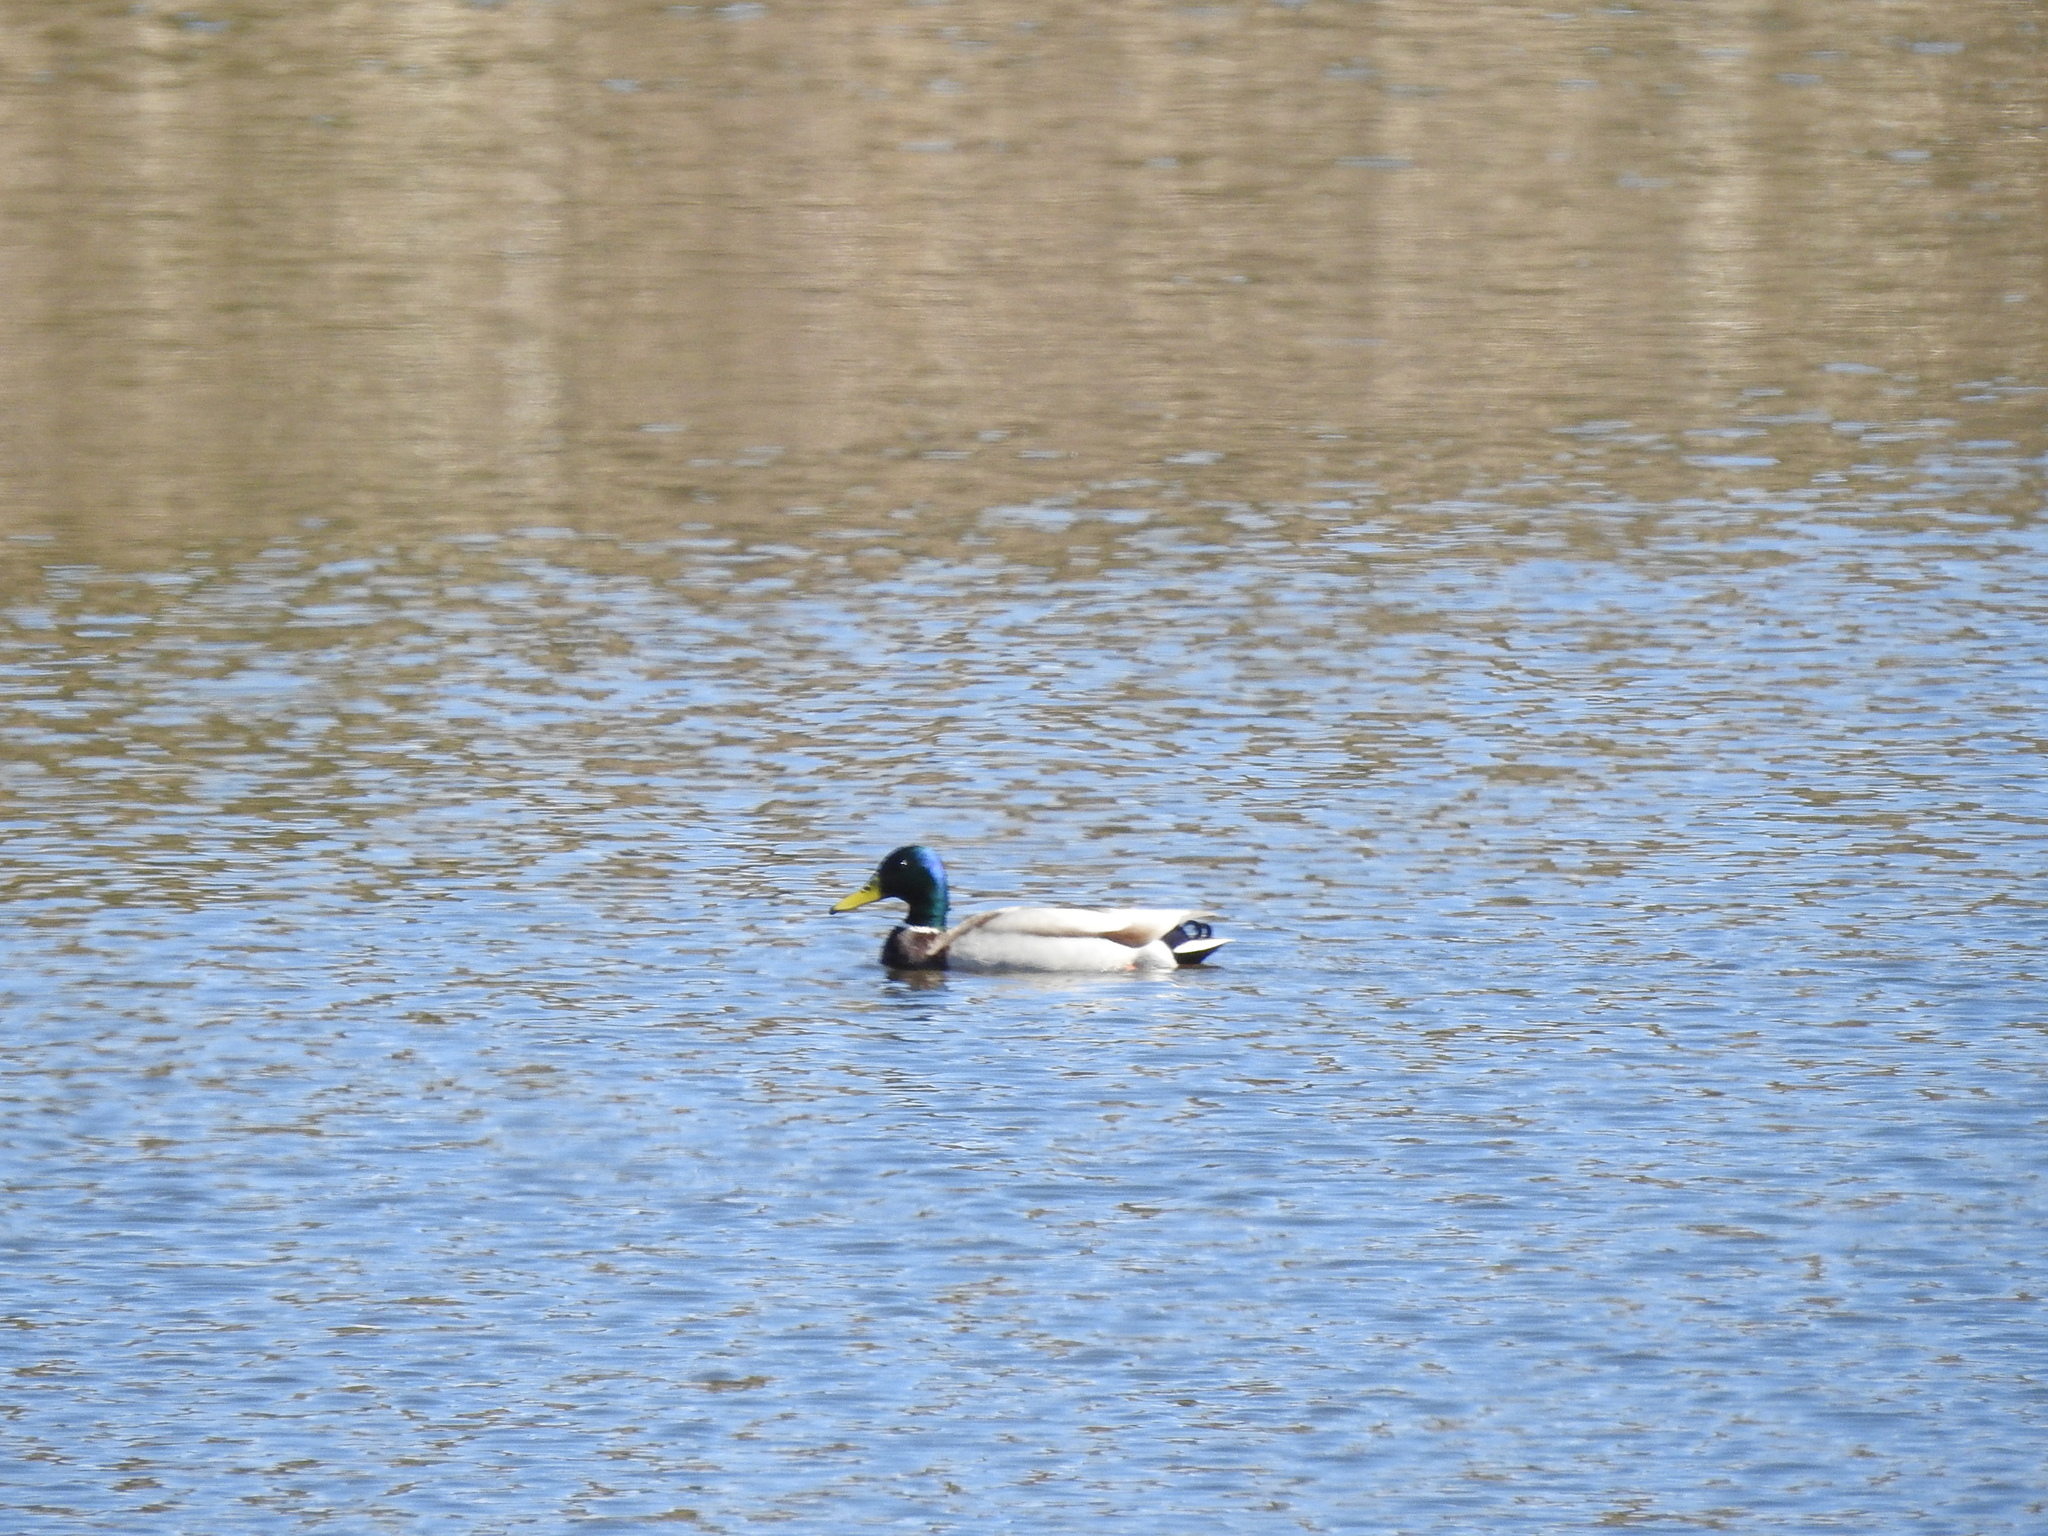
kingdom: Animalia
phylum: Chordata
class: Aves
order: Anseriformes
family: Anatidae
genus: Anas
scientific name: Anas platyrhynchos
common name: Mallard
